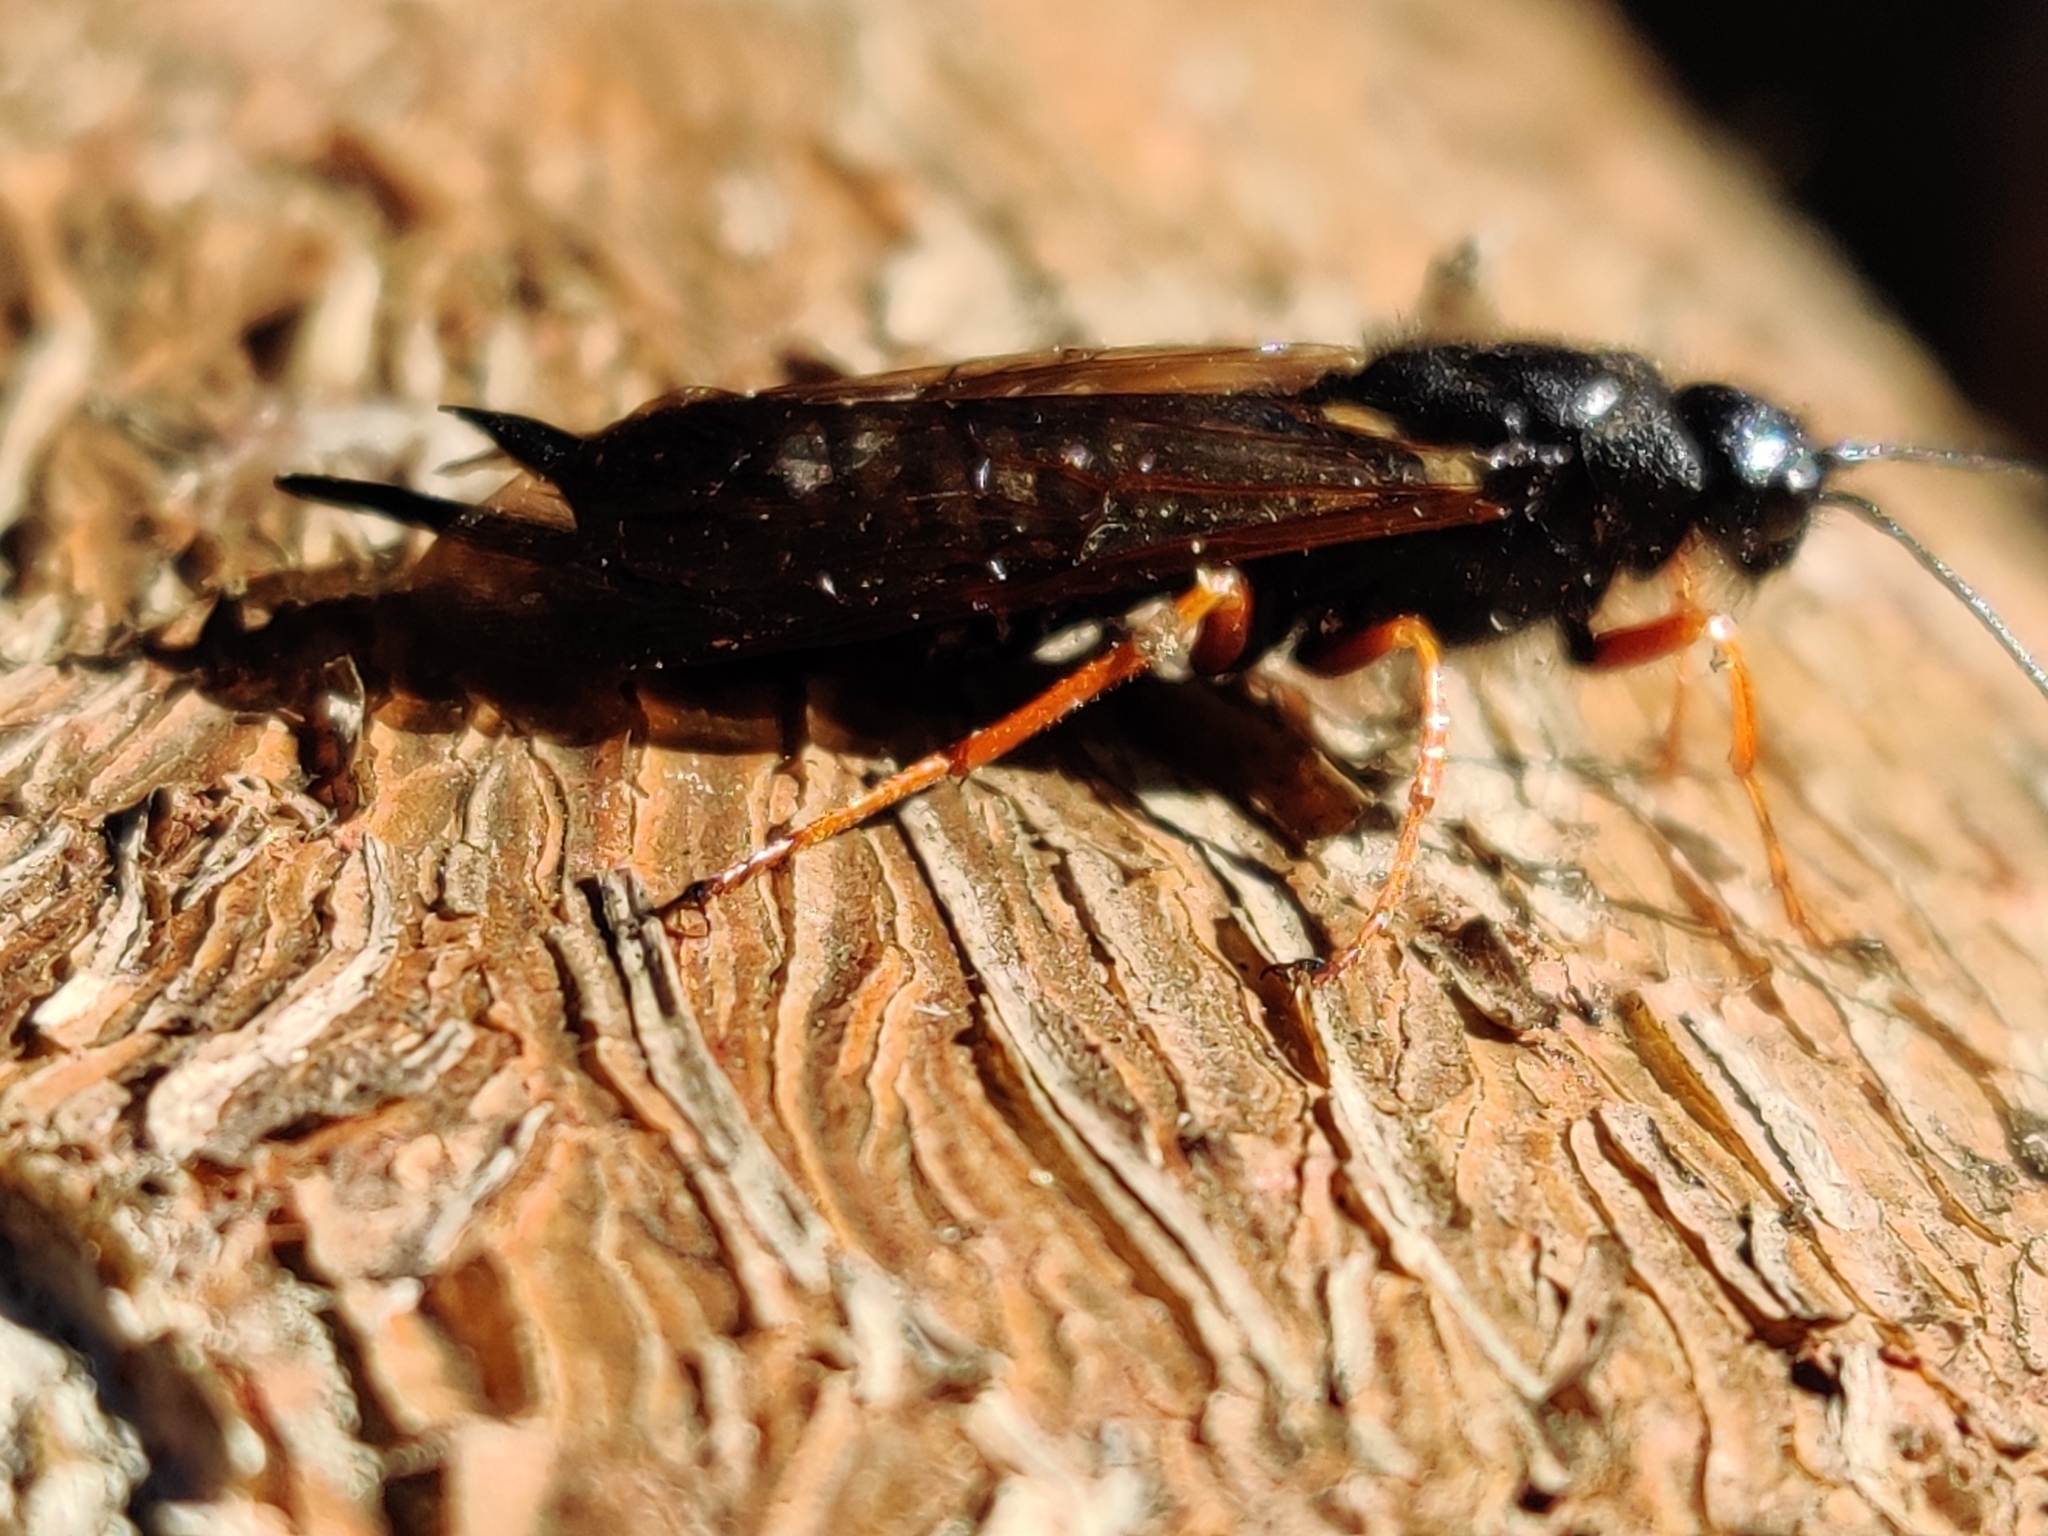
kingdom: Animalia
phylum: Arthropoda
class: Insecta
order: Hymenoptera
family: Siricidae
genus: Sirex
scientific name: Sirex noctilio
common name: Woodwasp
